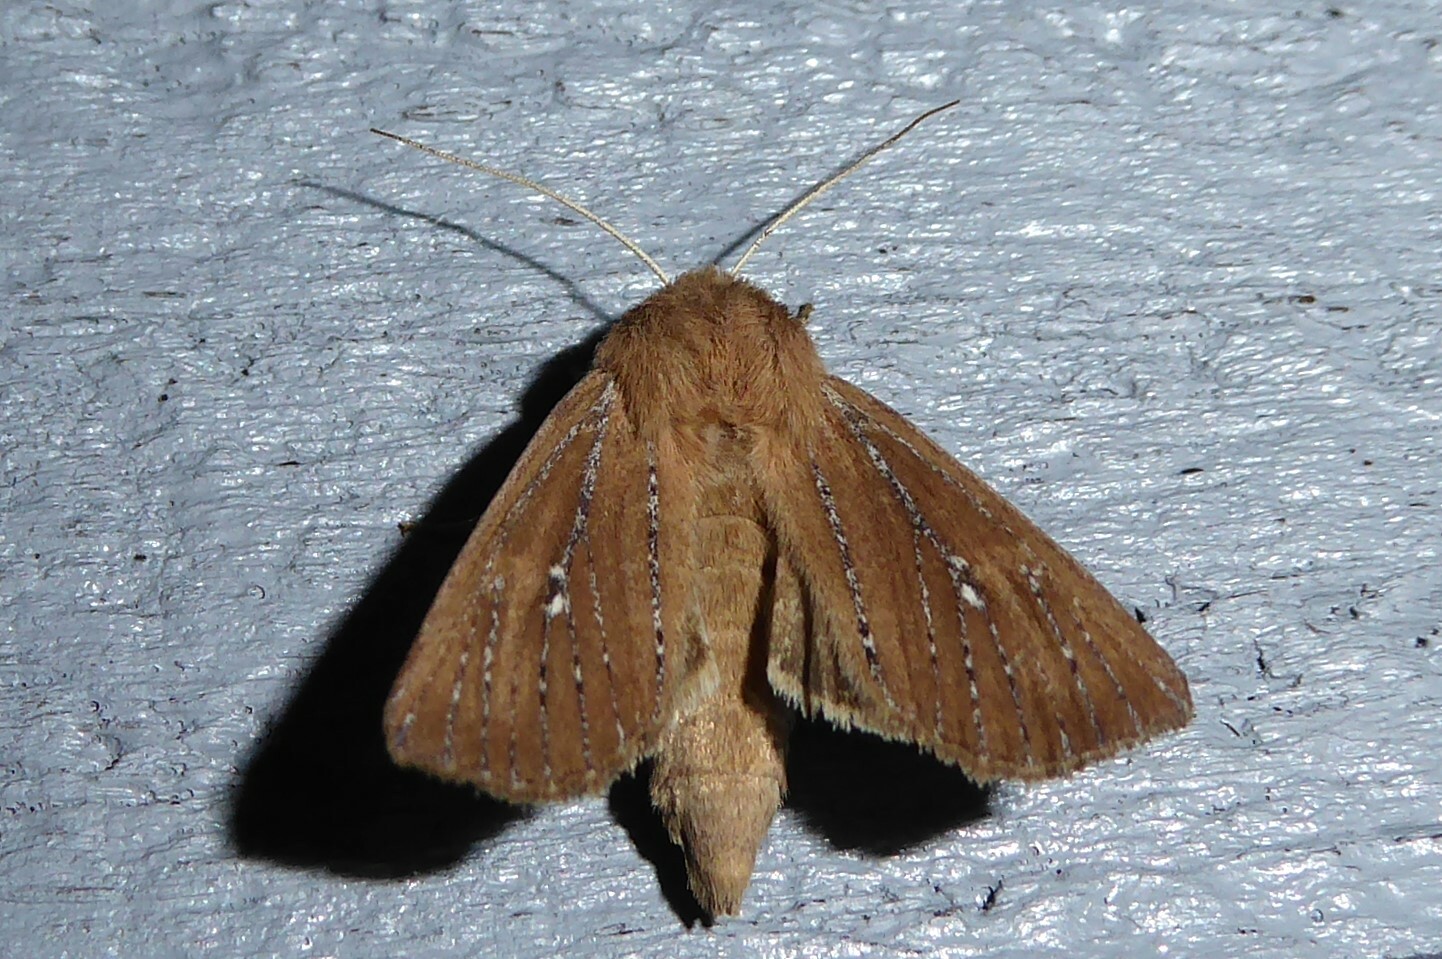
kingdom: Animalia
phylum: Arthropoda
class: Insecta
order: Lepidoptera
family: Noctuidae
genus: Ichneutica
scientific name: Ichneutica
